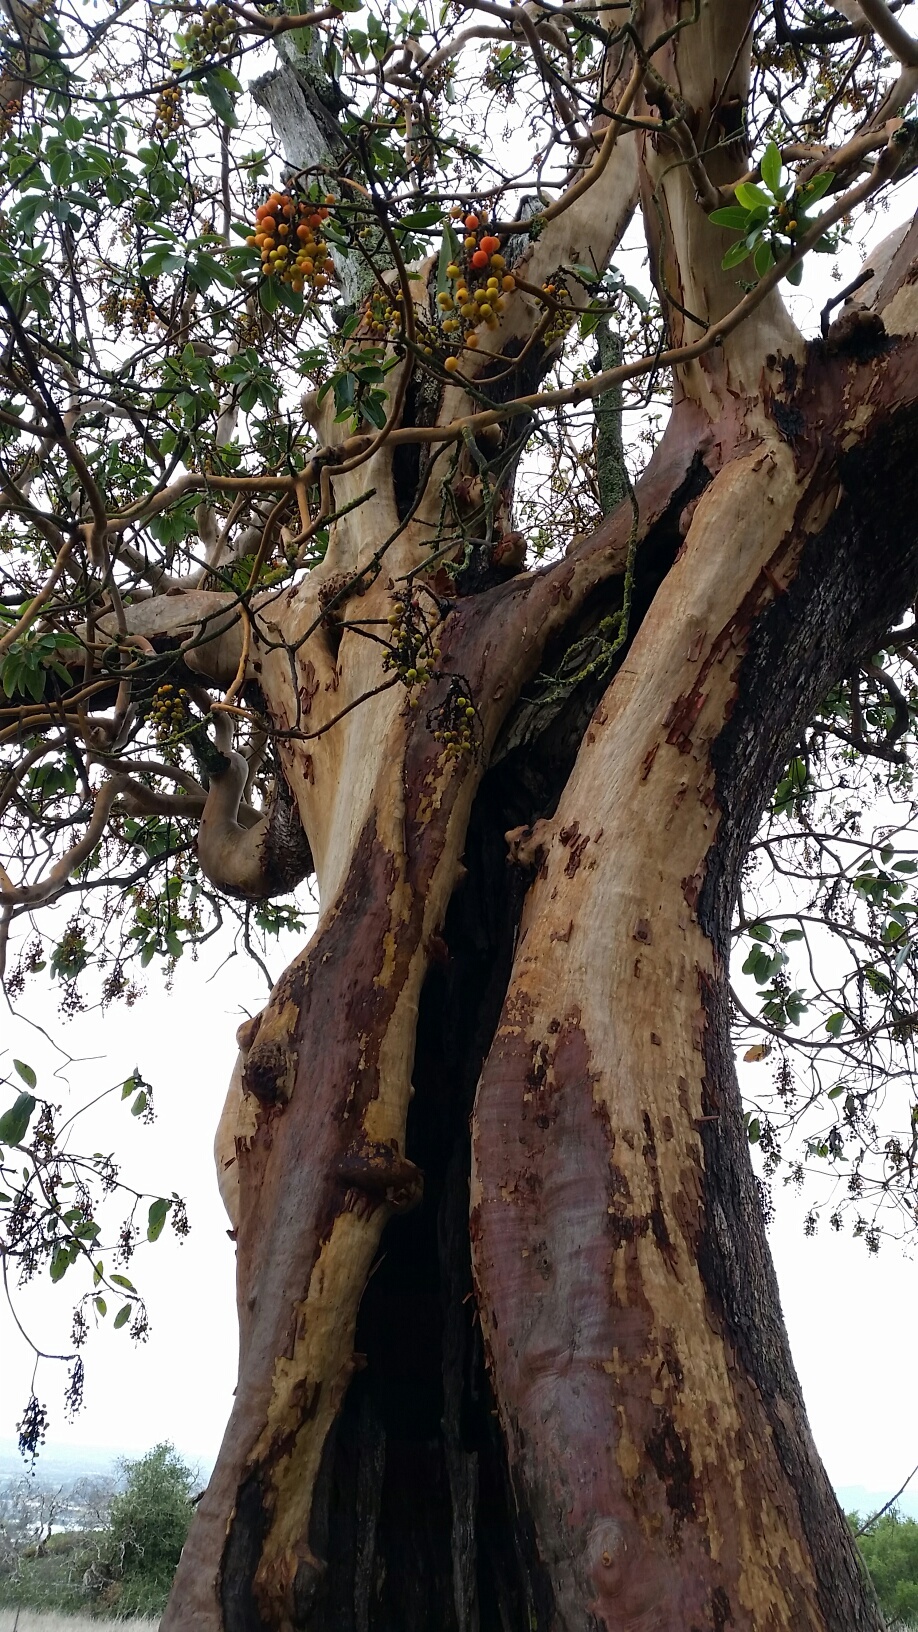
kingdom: Plantae
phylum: Tracheophyta
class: Magnoliopsida
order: Ericales
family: Ericaceae
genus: Arbutus
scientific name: Arbutus menziesii
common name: Pacific madrone
